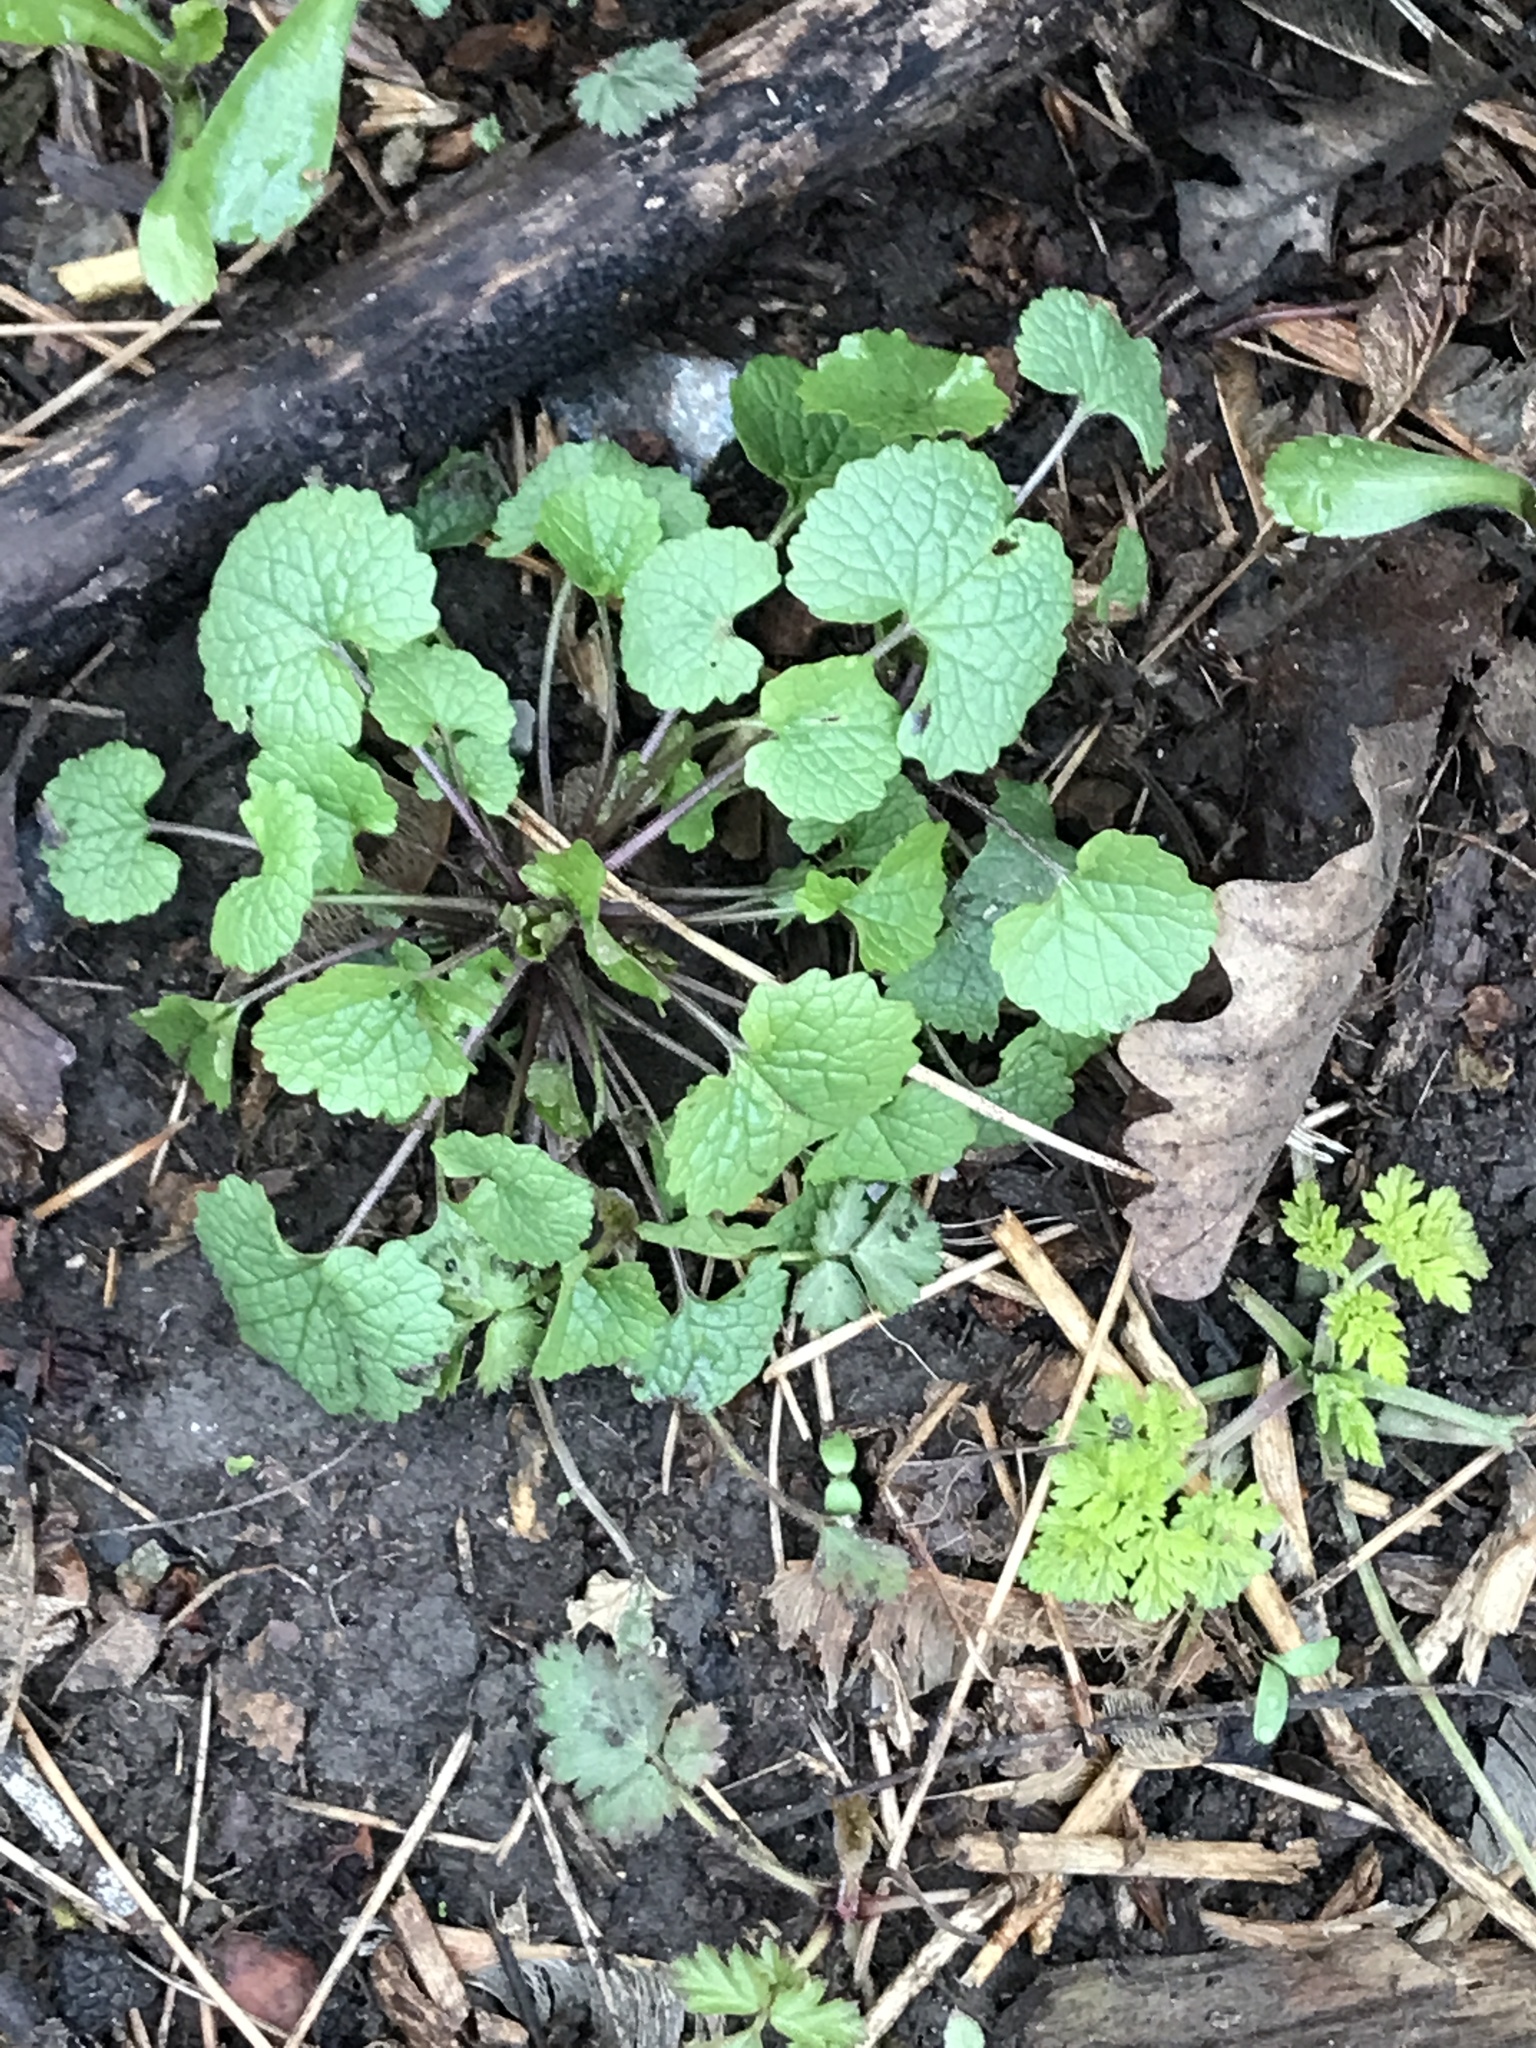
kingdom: Plantae
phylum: Tracheophyta
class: Magnoliopsida
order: Brassicales
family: Brassicaceae
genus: Alliaria
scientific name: Alliaria petiolata
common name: Garlic mustard
